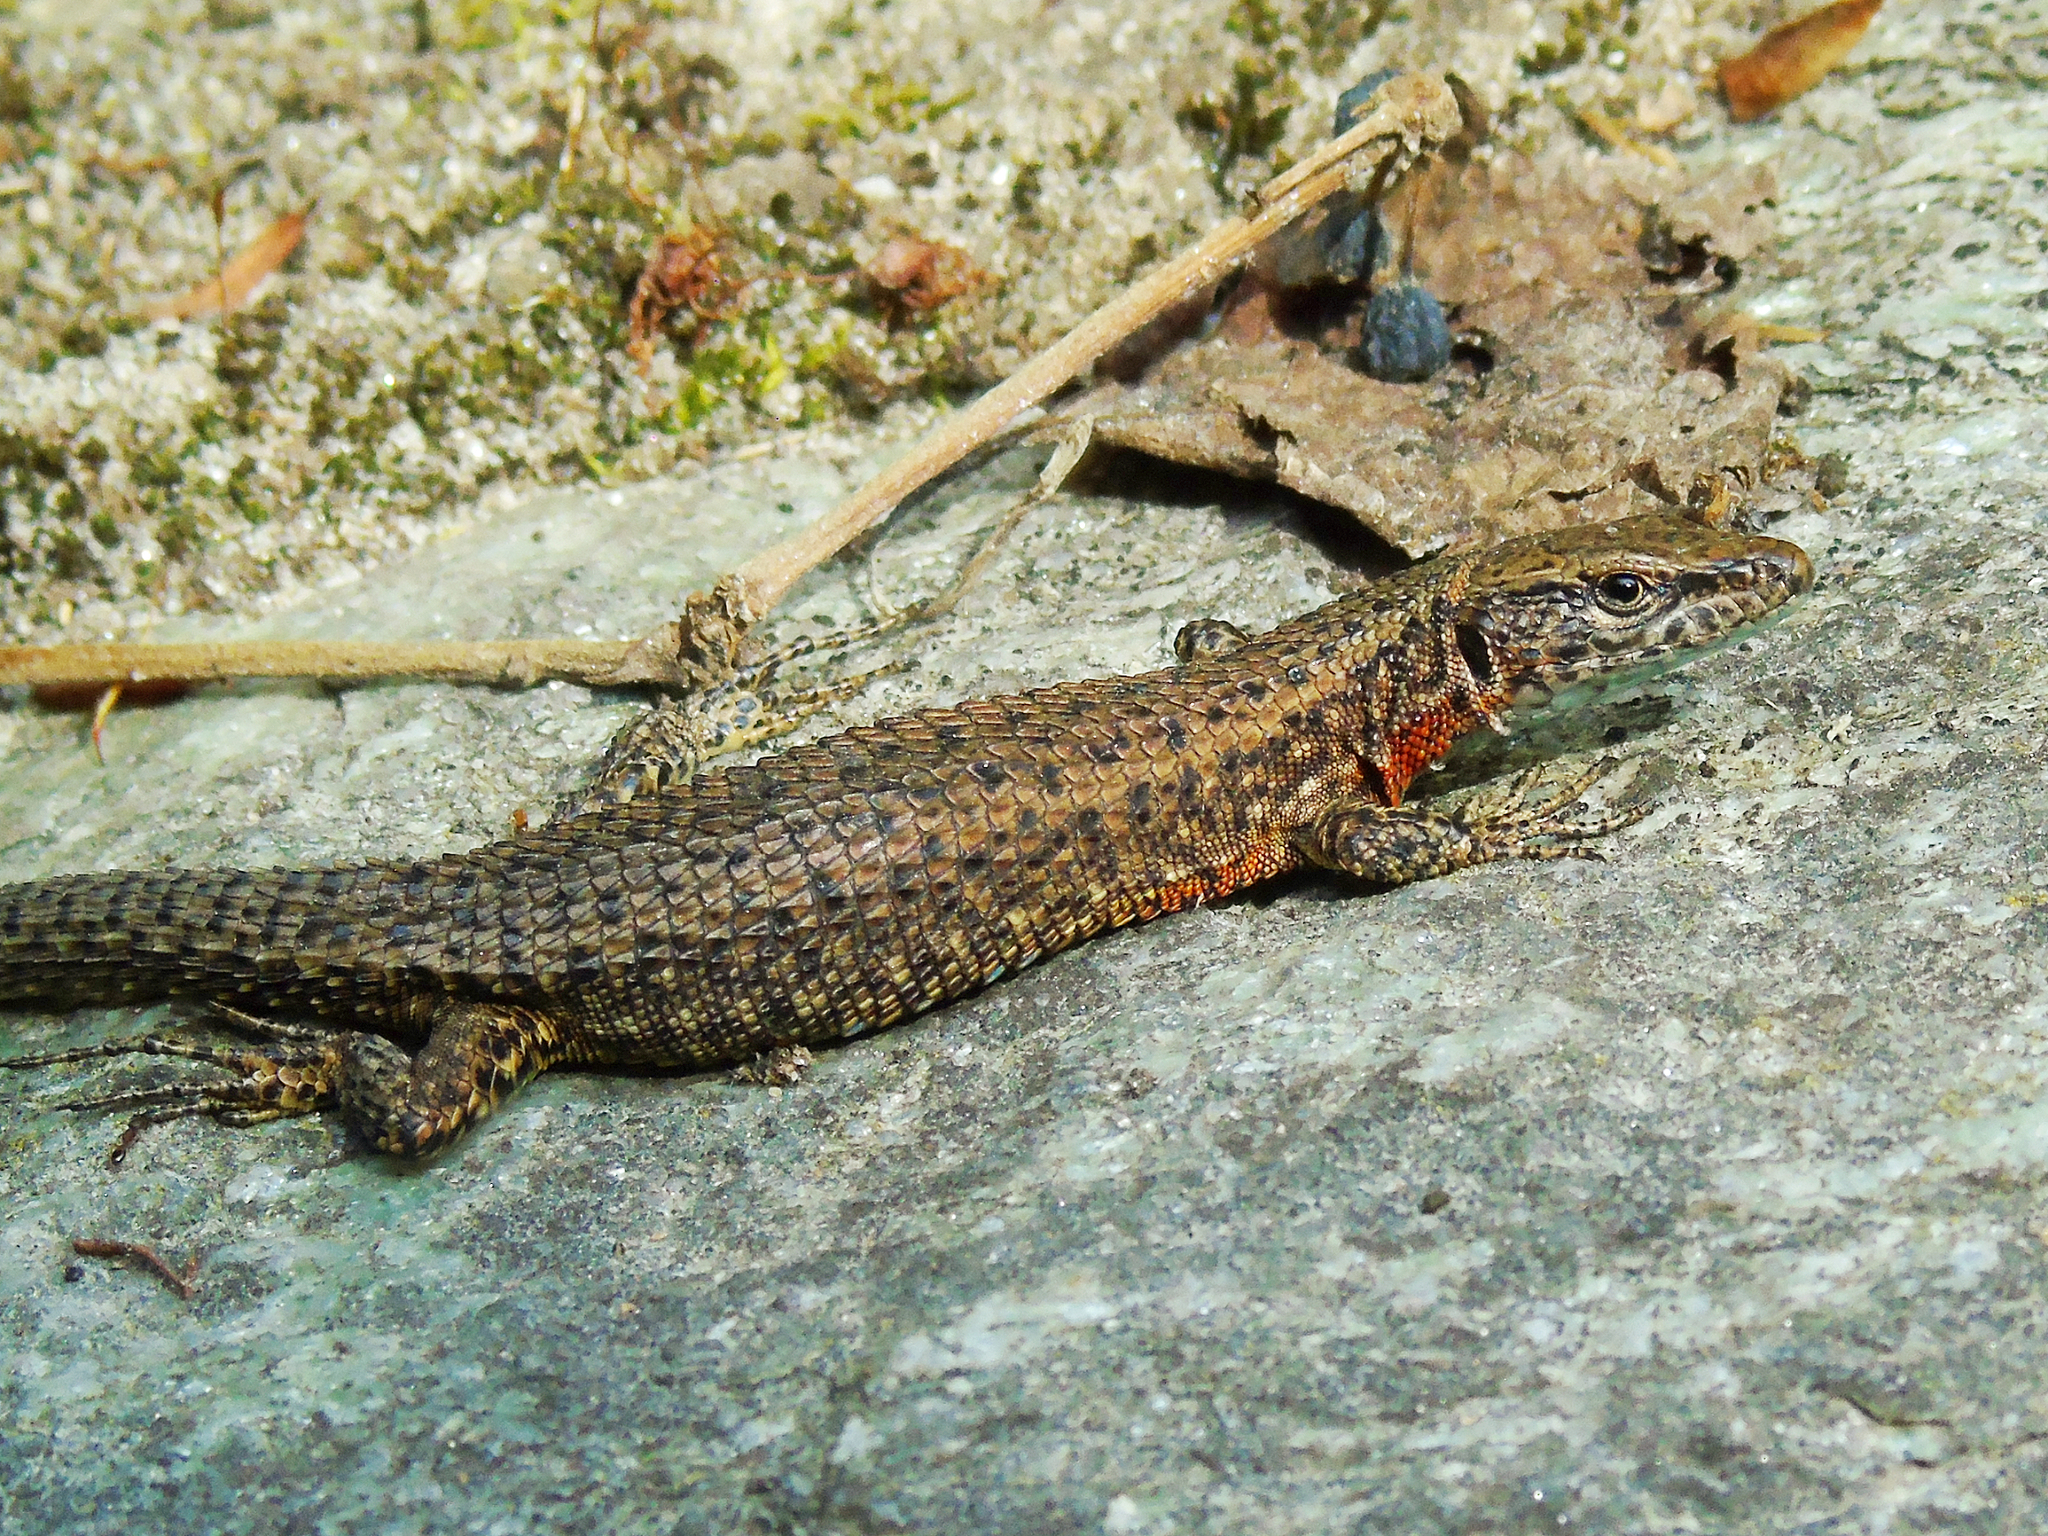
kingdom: Animalia
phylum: Chordata
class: Squamata
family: Lacertidae
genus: Algyroides
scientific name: Algyroides nigropunctatus
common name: Blue-throated keeled lizard
